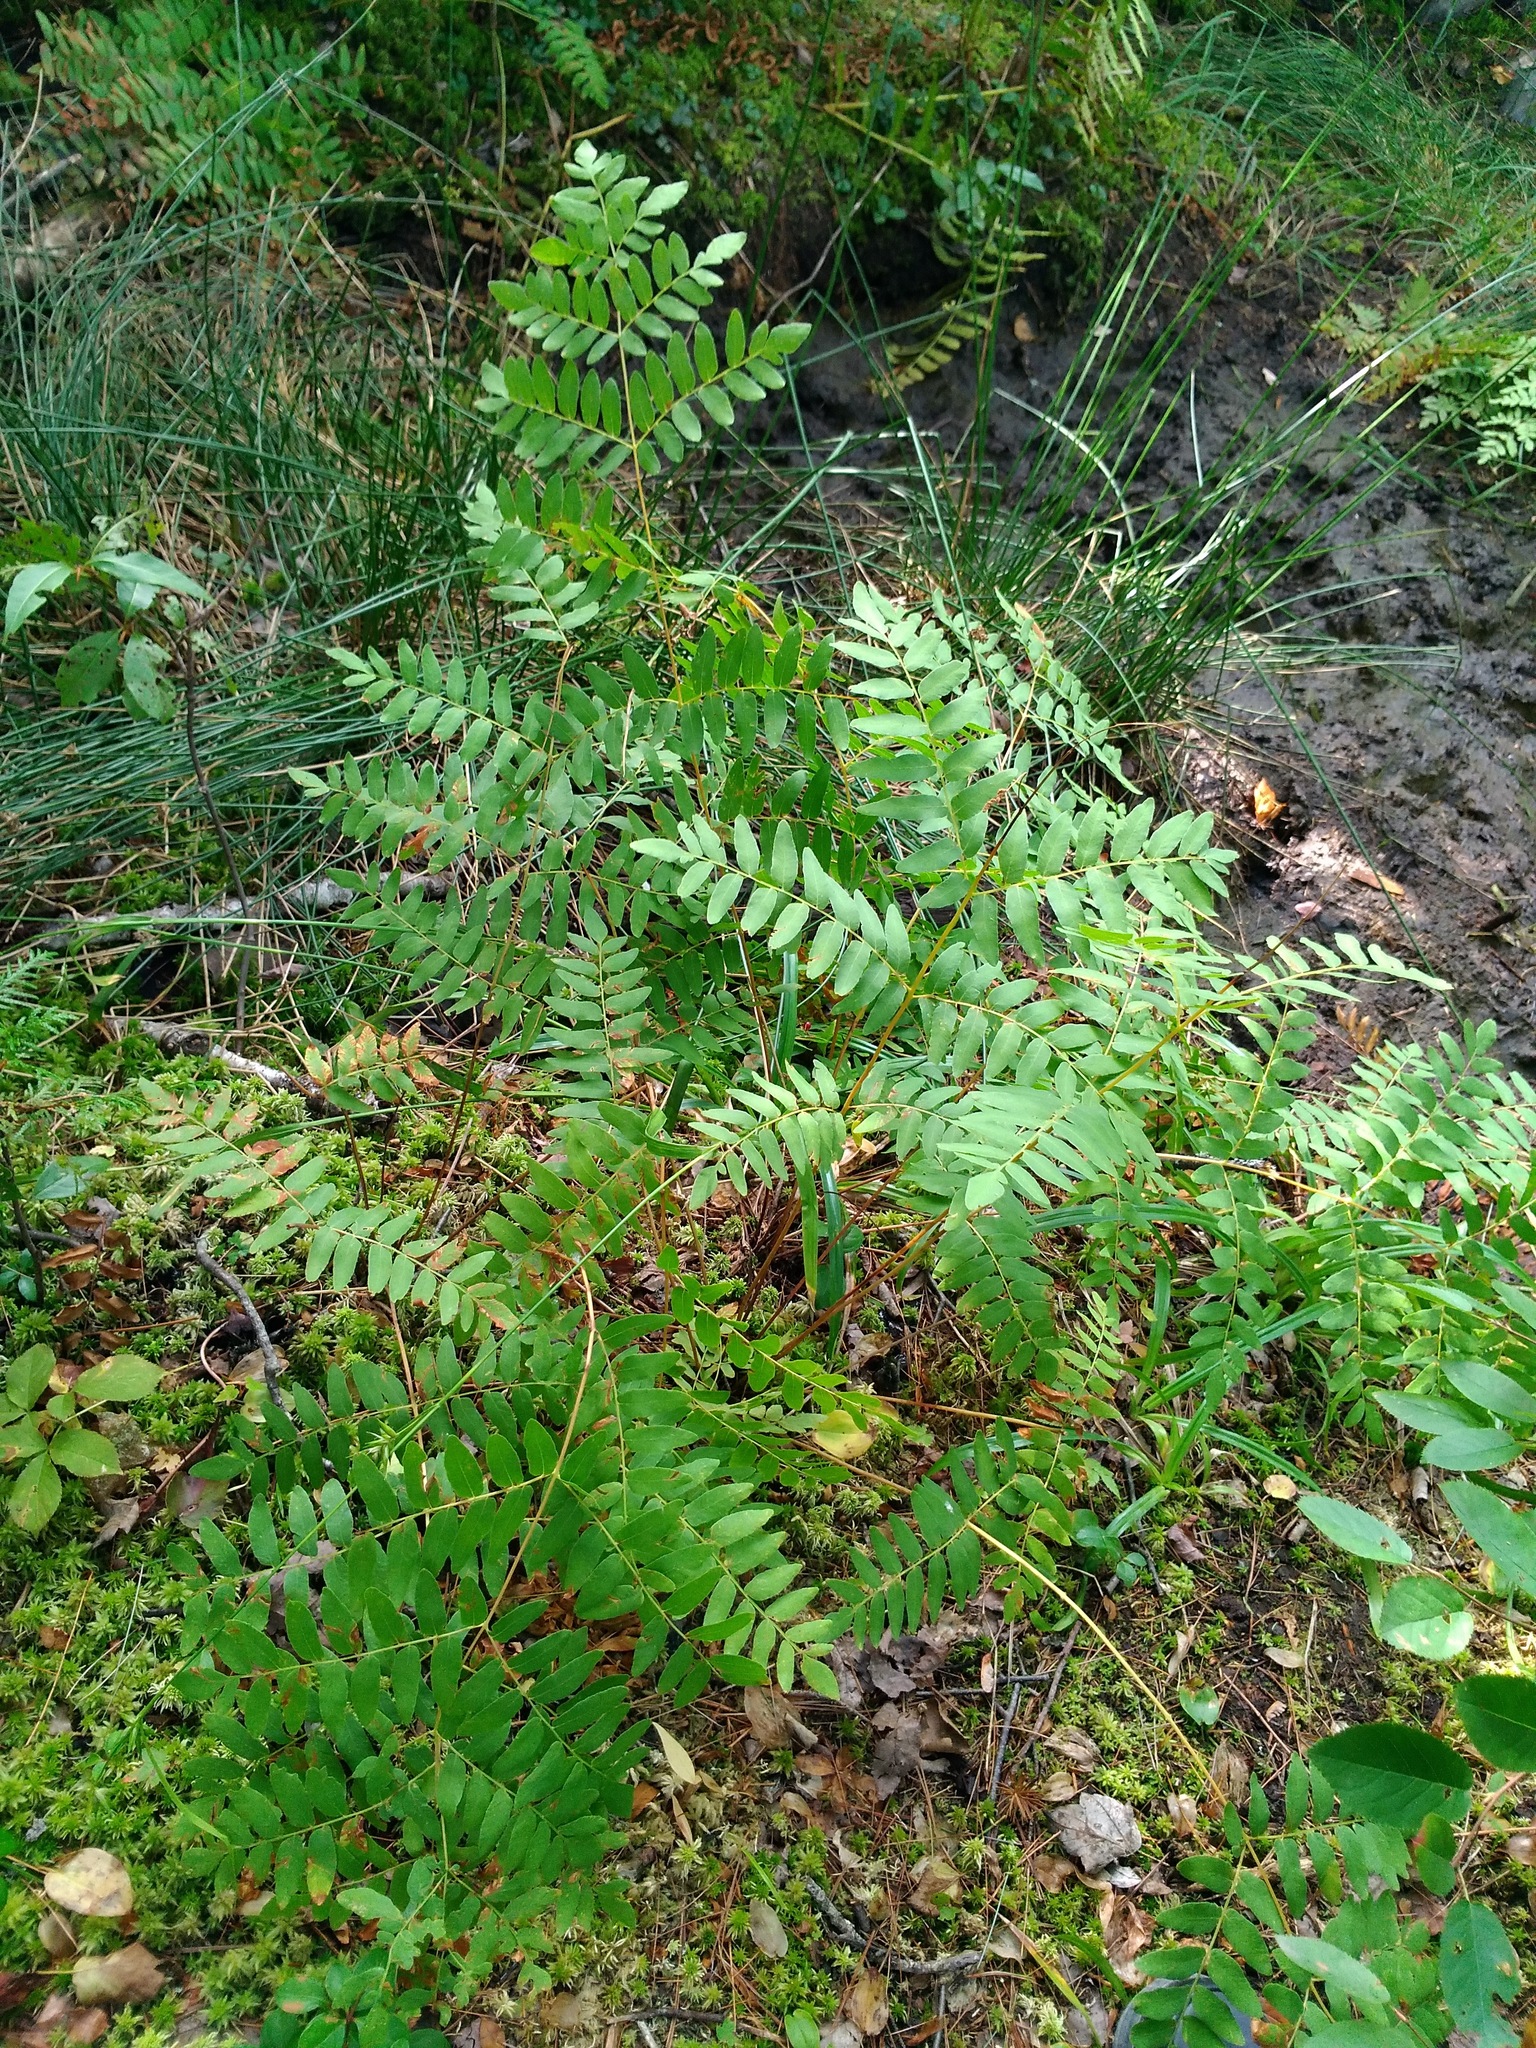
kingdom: Plantae
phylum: Tracheophyta
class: Polypodiopsida
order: Osmundales
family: Osmundaceae
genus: Osmunda
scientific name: Osmunda spectabilis
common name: American royal fern
